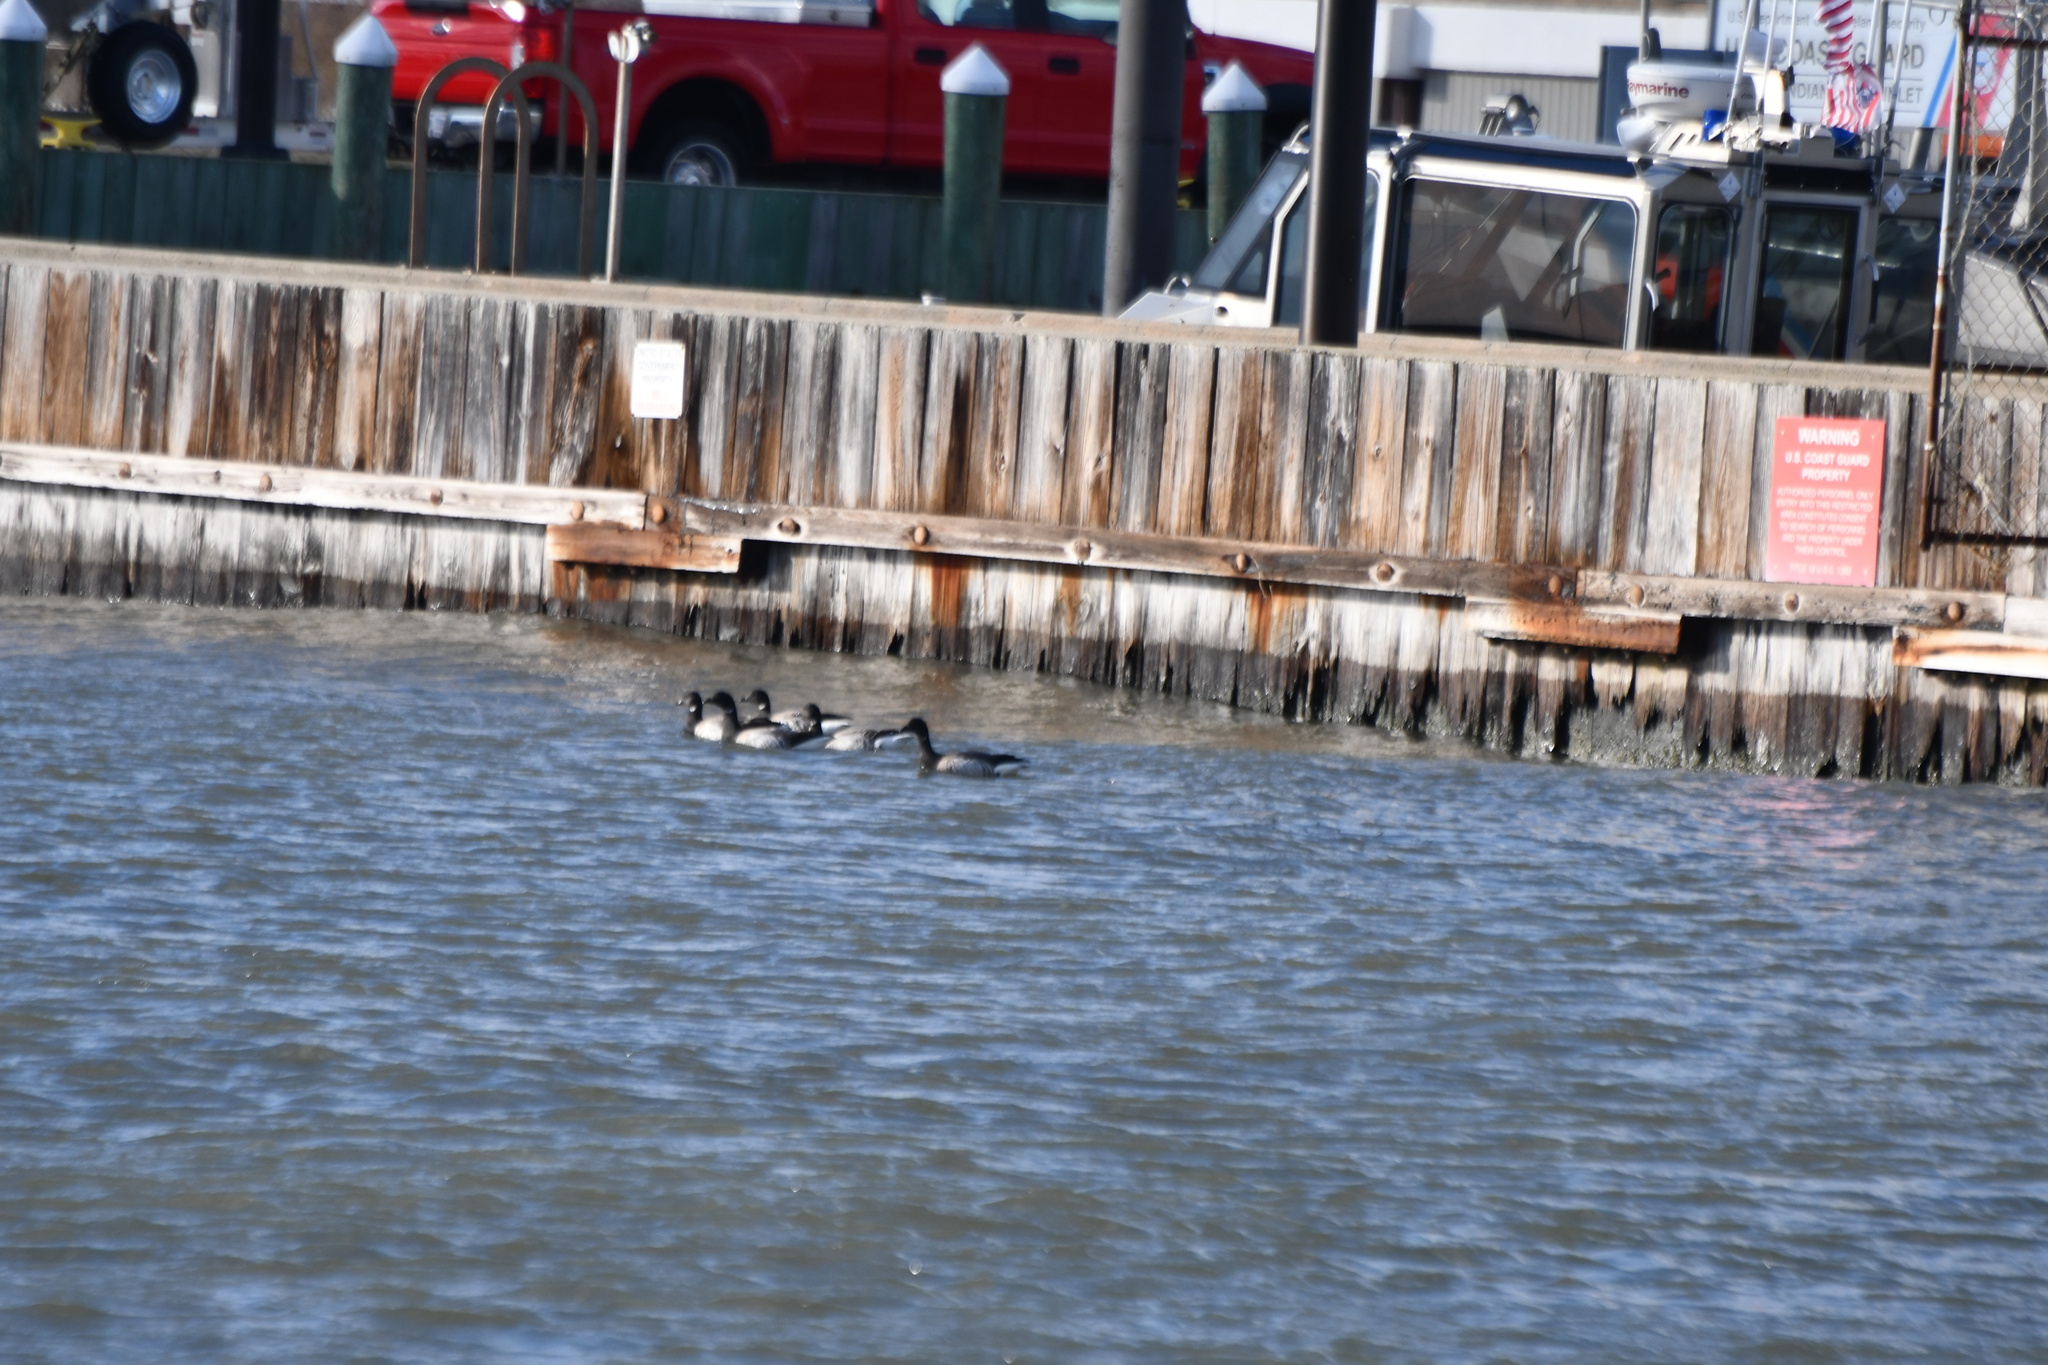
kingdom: Animalia
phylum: Chordata
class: Aves
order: Anseriformes
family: Anatidae
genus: Branta
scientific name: Branta bernicla
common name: Brant goose
